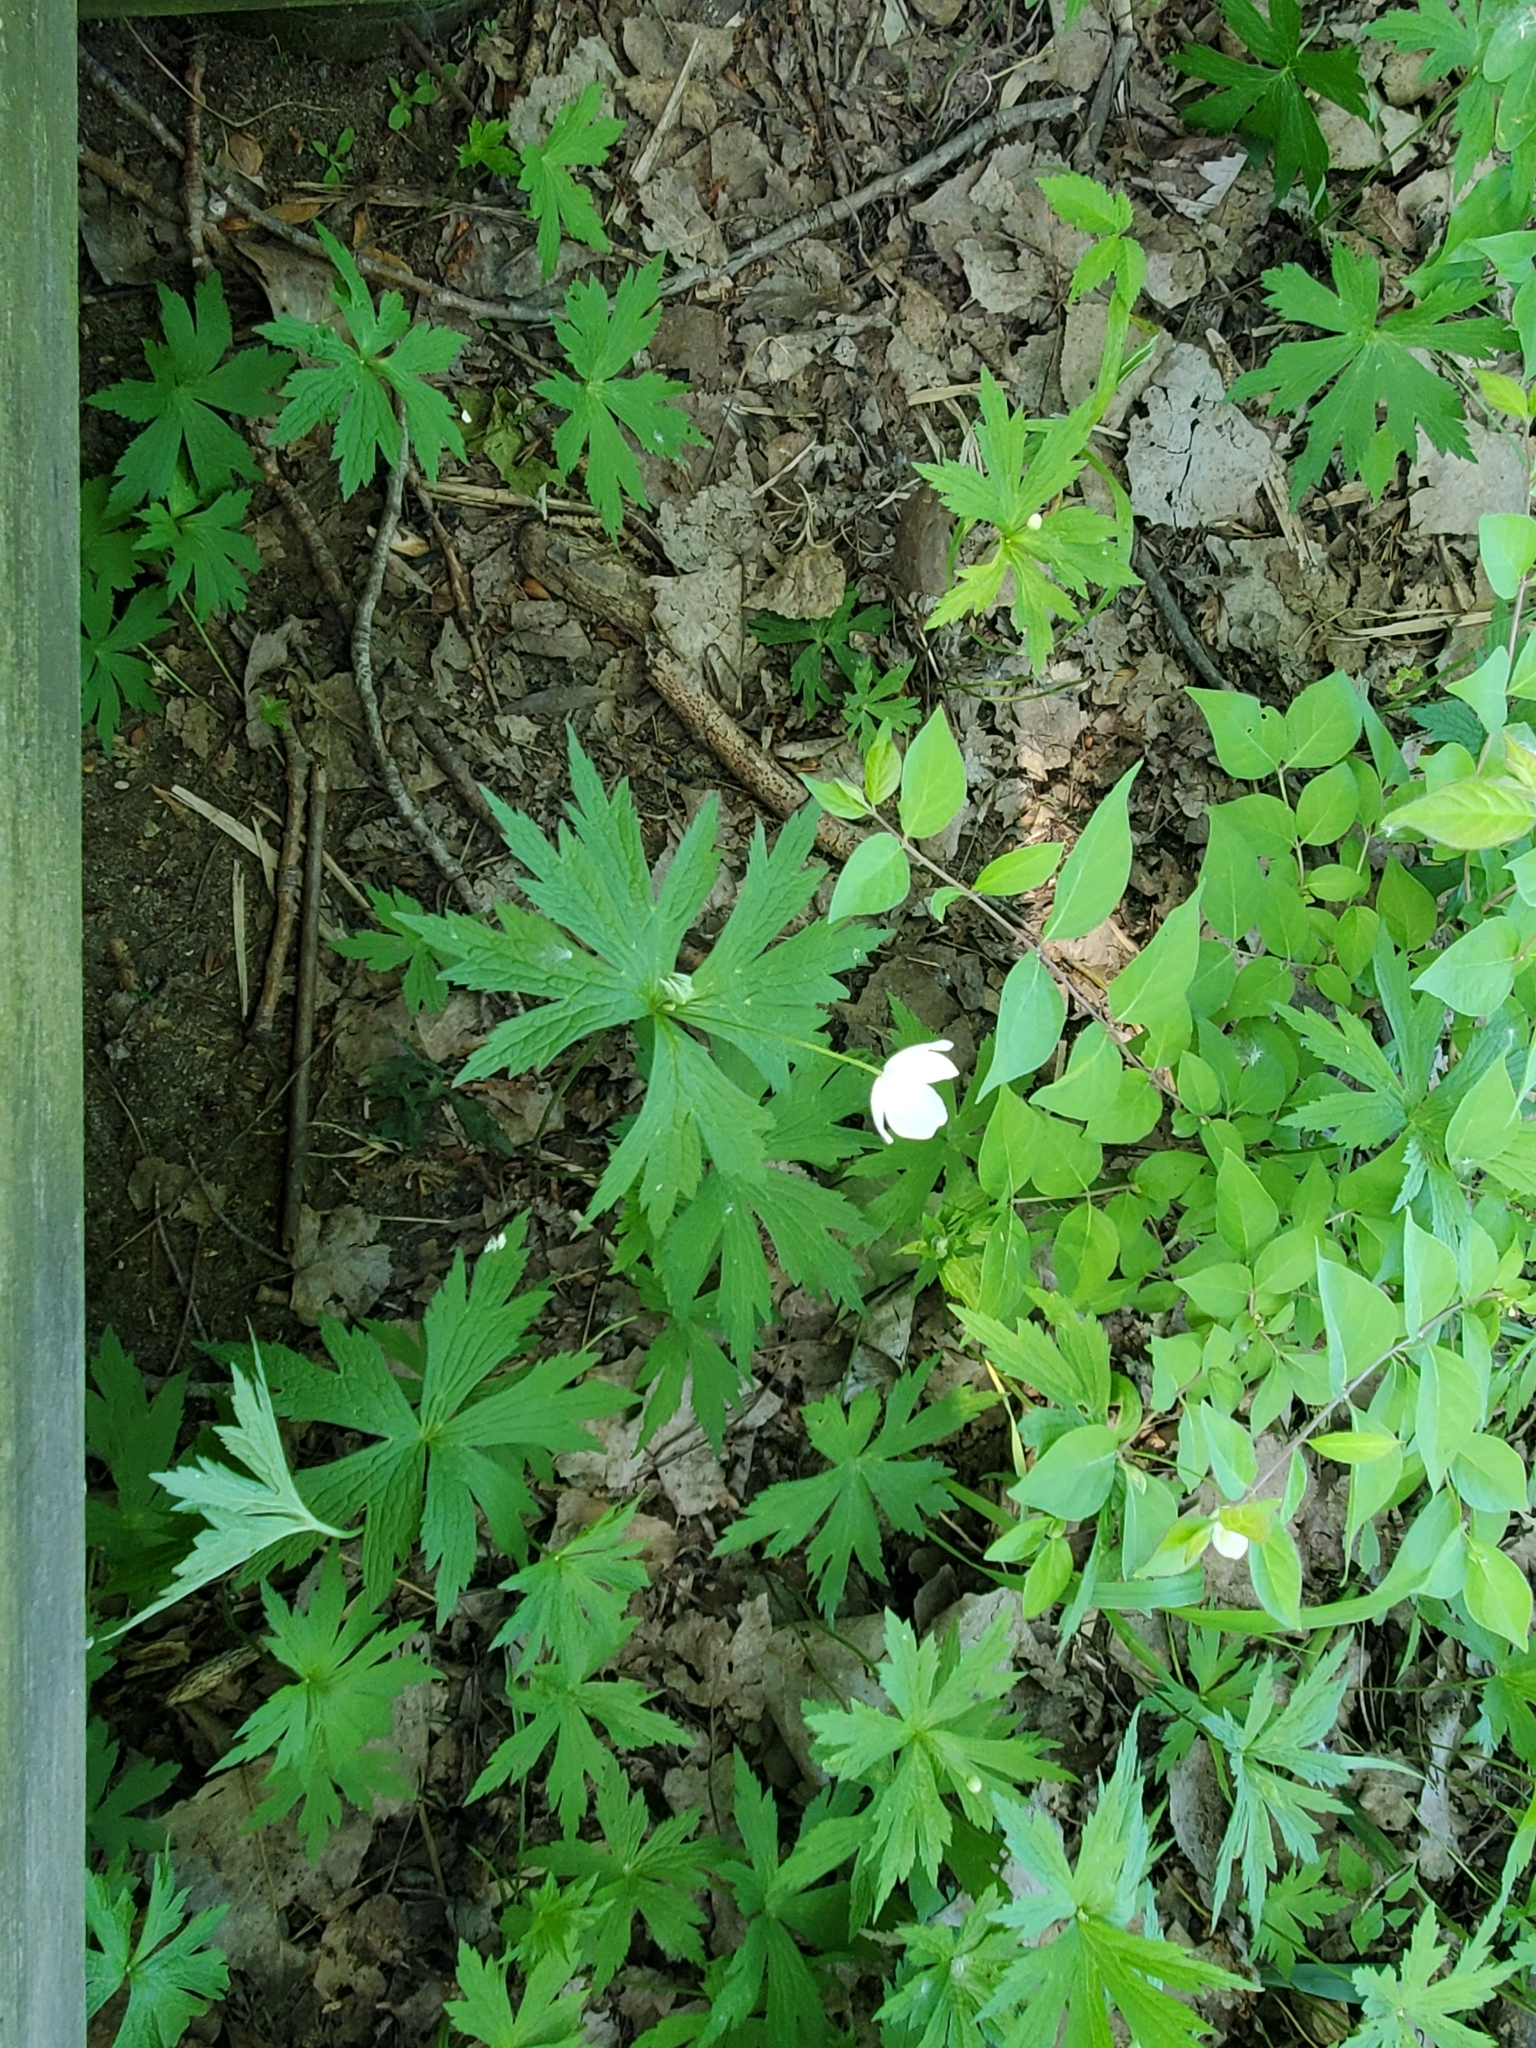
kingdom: Plantae
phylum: Tracheophyta
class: Magnoliopsida
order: Ranunculales
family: Ranunculaceae
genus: Anemonastrum
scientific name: Anemonastrum canadense
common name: Canada anemone
